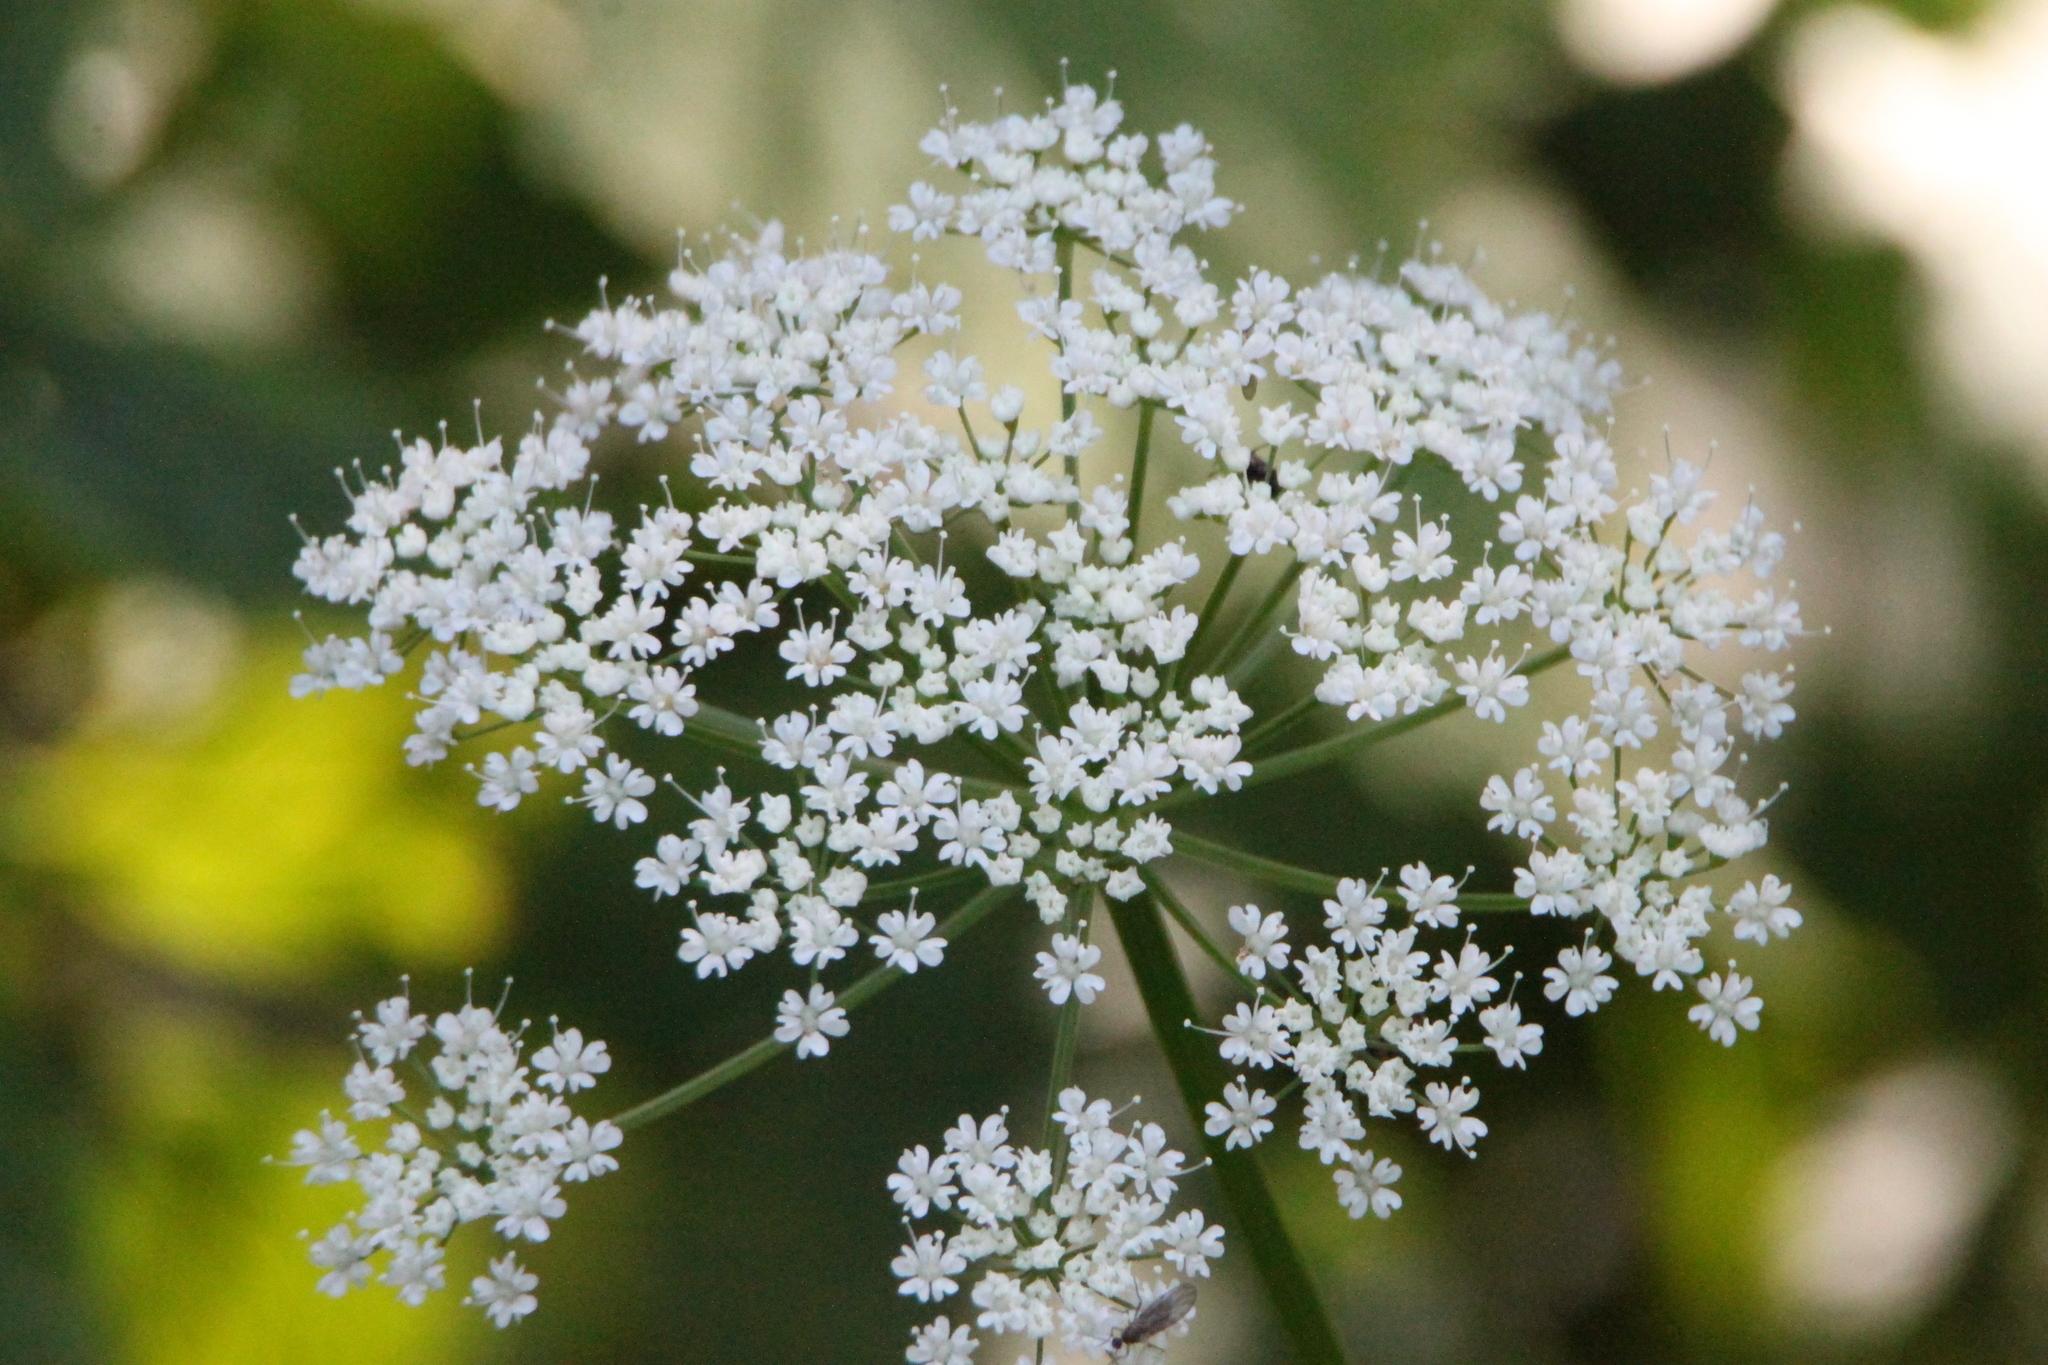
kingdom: Plantae
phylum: Tracheophyta
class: Magnoliopsida
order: Apiales
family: Apiaceae
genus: Aegopodium
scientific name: Aegopodium podagraria
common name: Ground-elder
